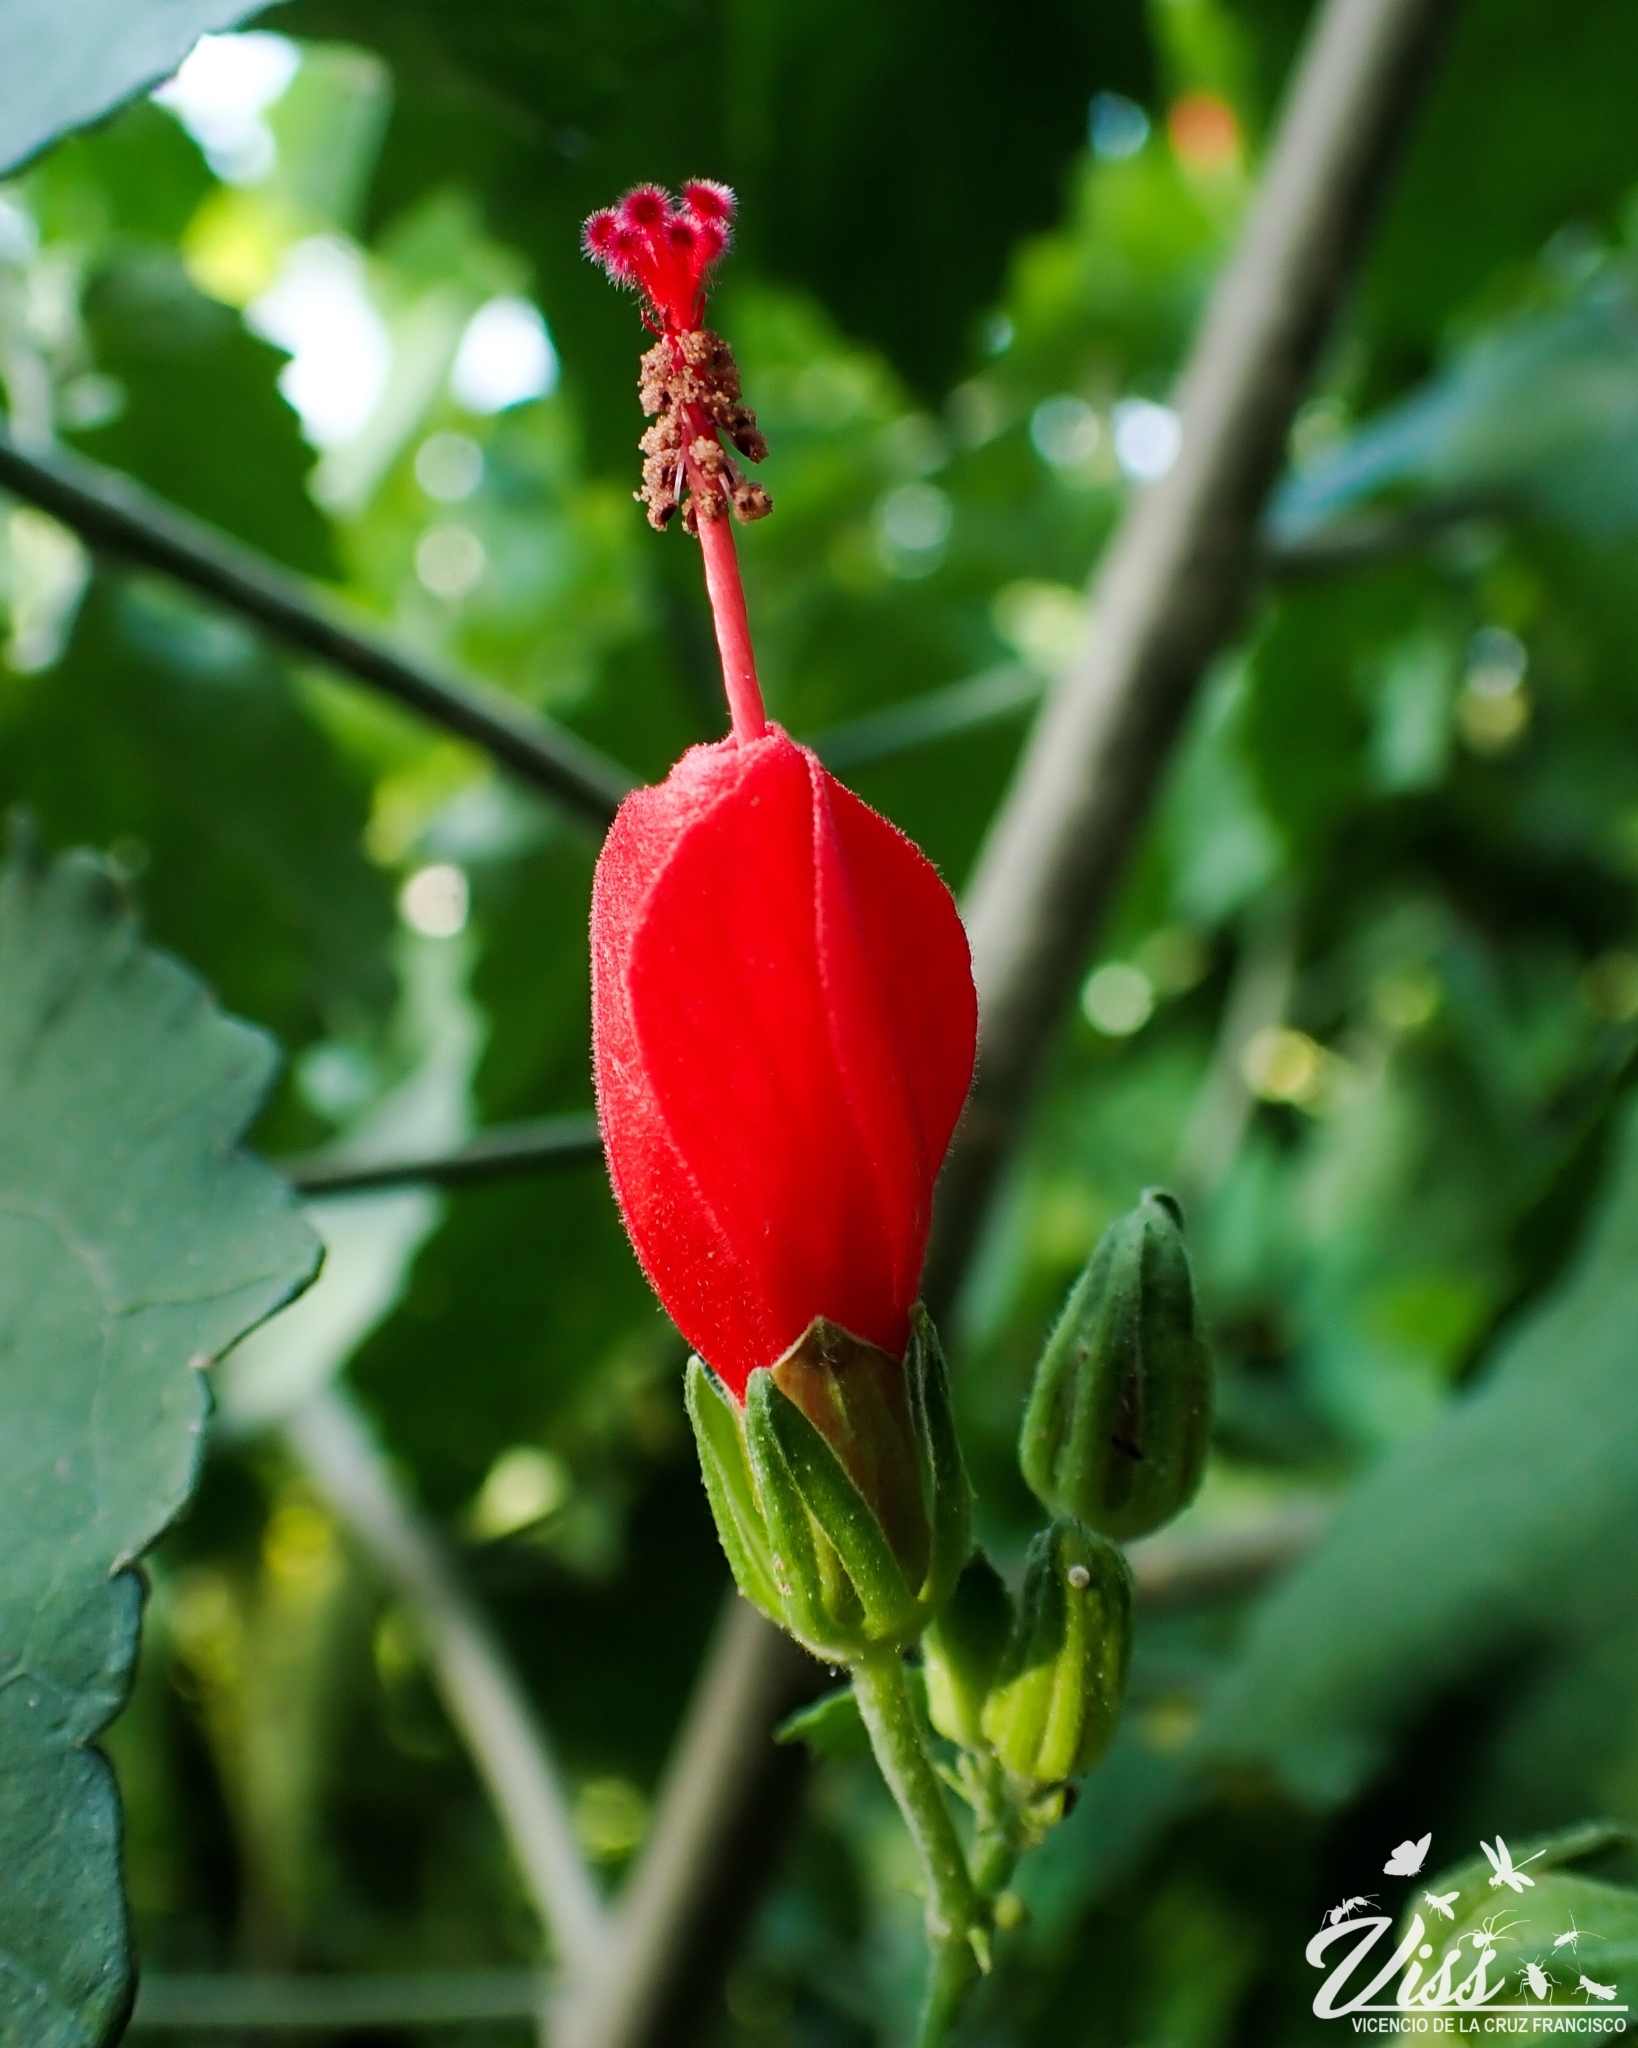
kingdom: Plantae
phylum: Tracheophyta
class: Magnoliopsida
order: Malvales
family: Malvaceae
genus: Malvaviscus
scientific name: Malvaviscus arboreus
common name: Wax mallow
